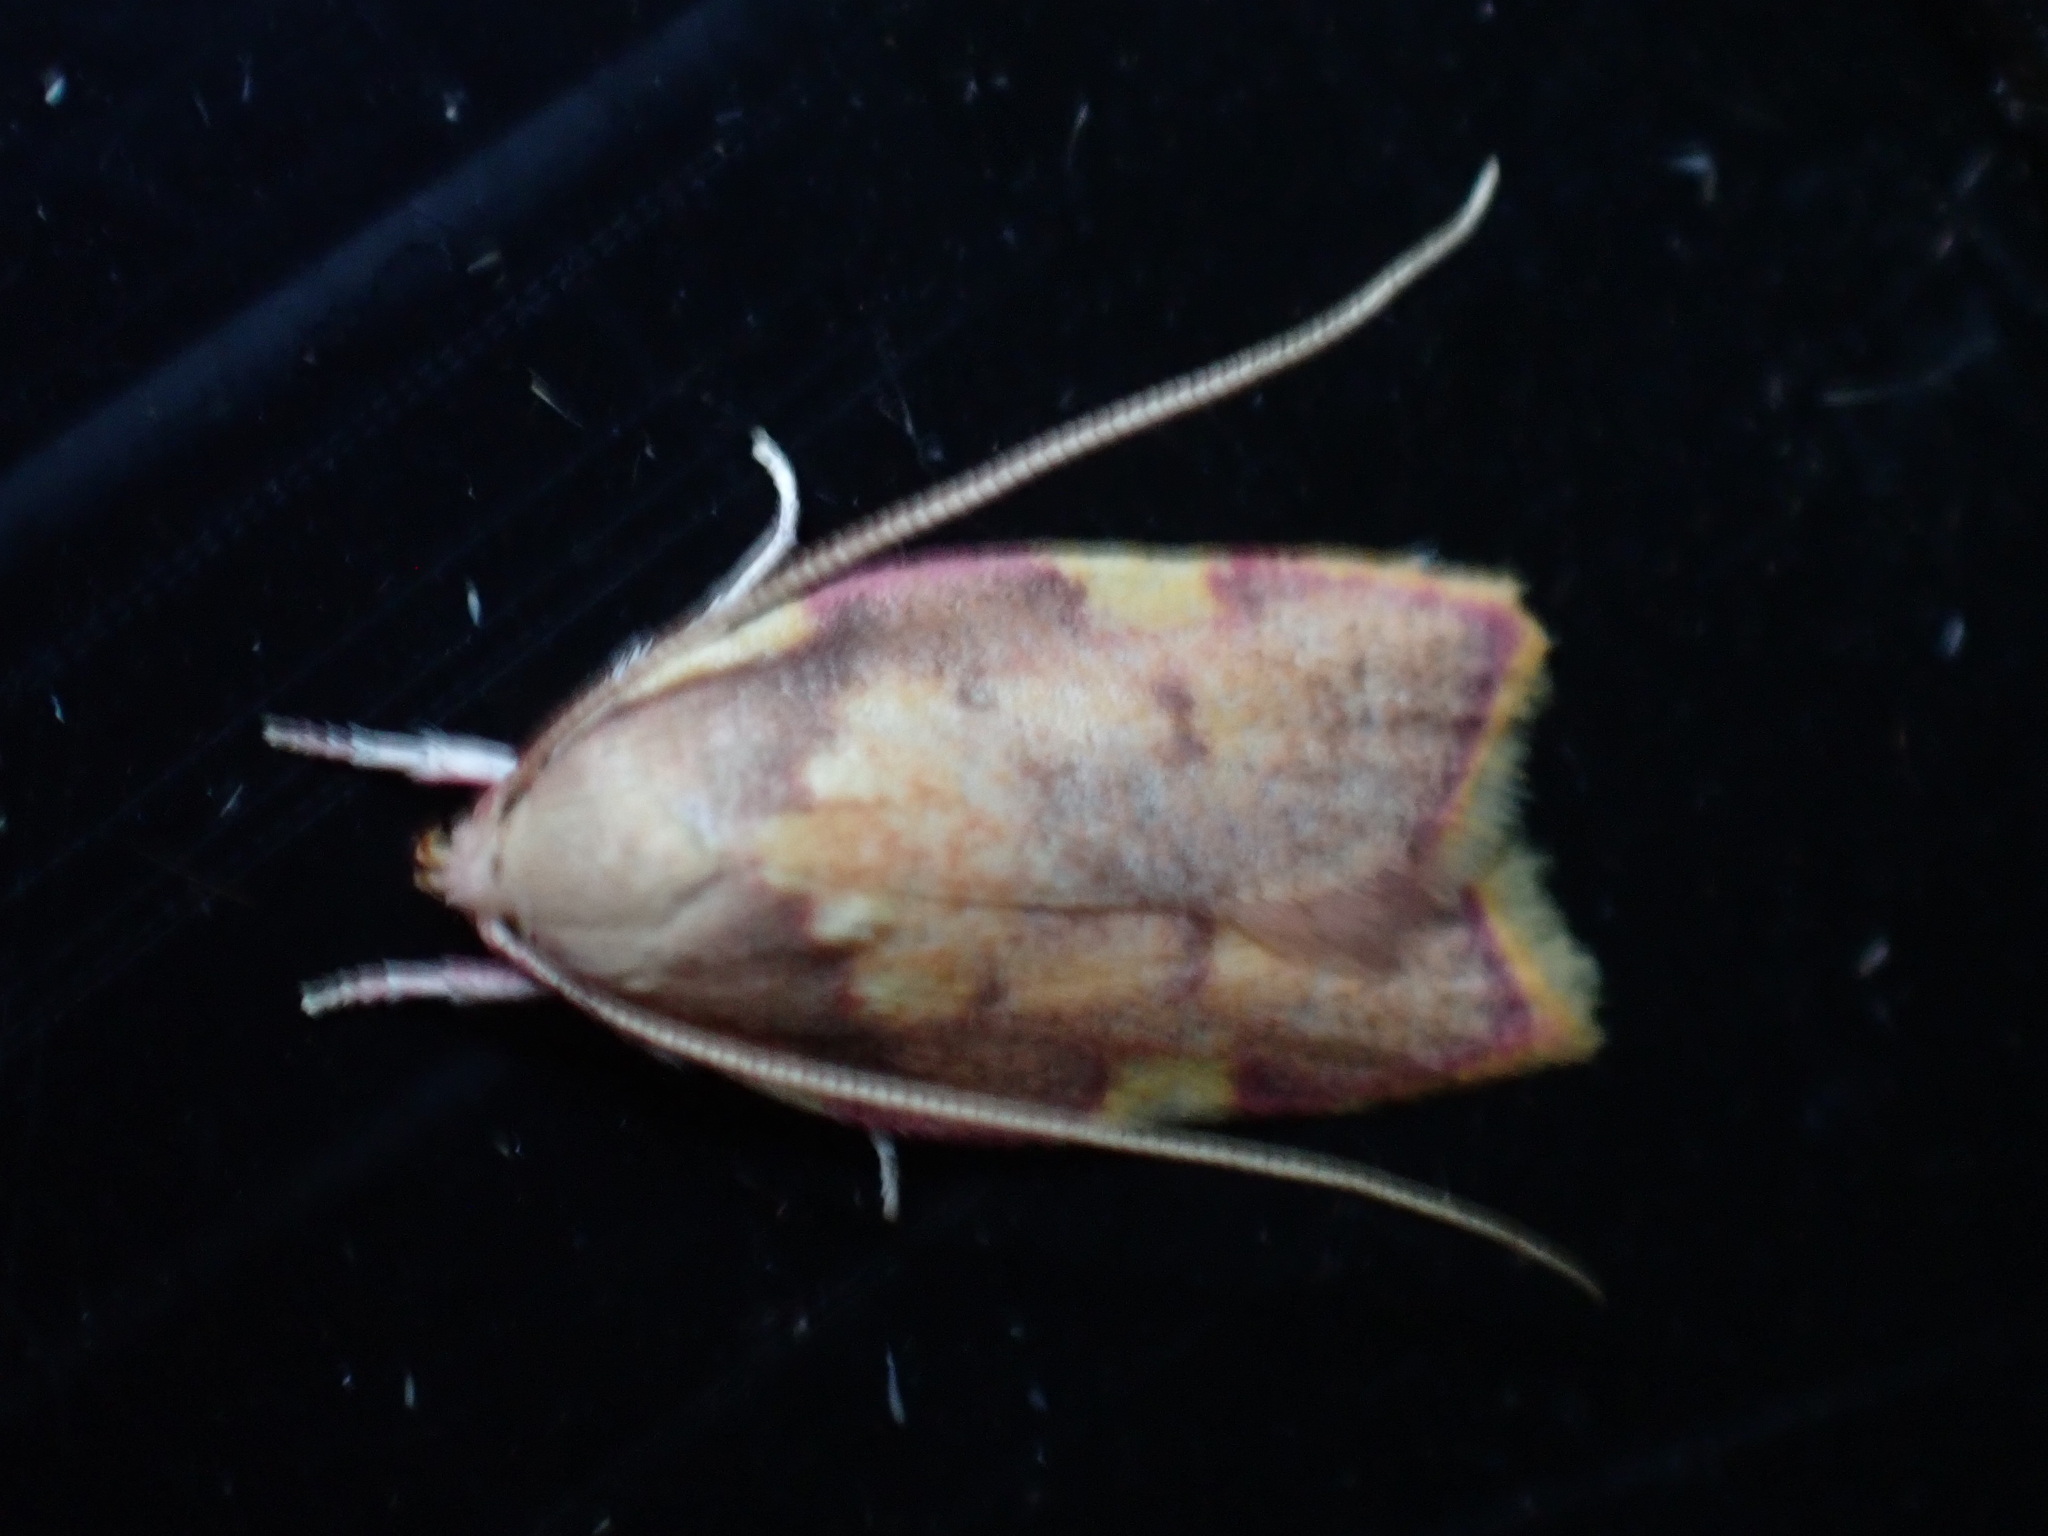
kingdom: Animalia
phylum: Arthropoda
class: Insecta
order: Lepidoptera
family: Peleopodidae
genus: Carcina
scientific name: Carcina quercana
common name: Moth
